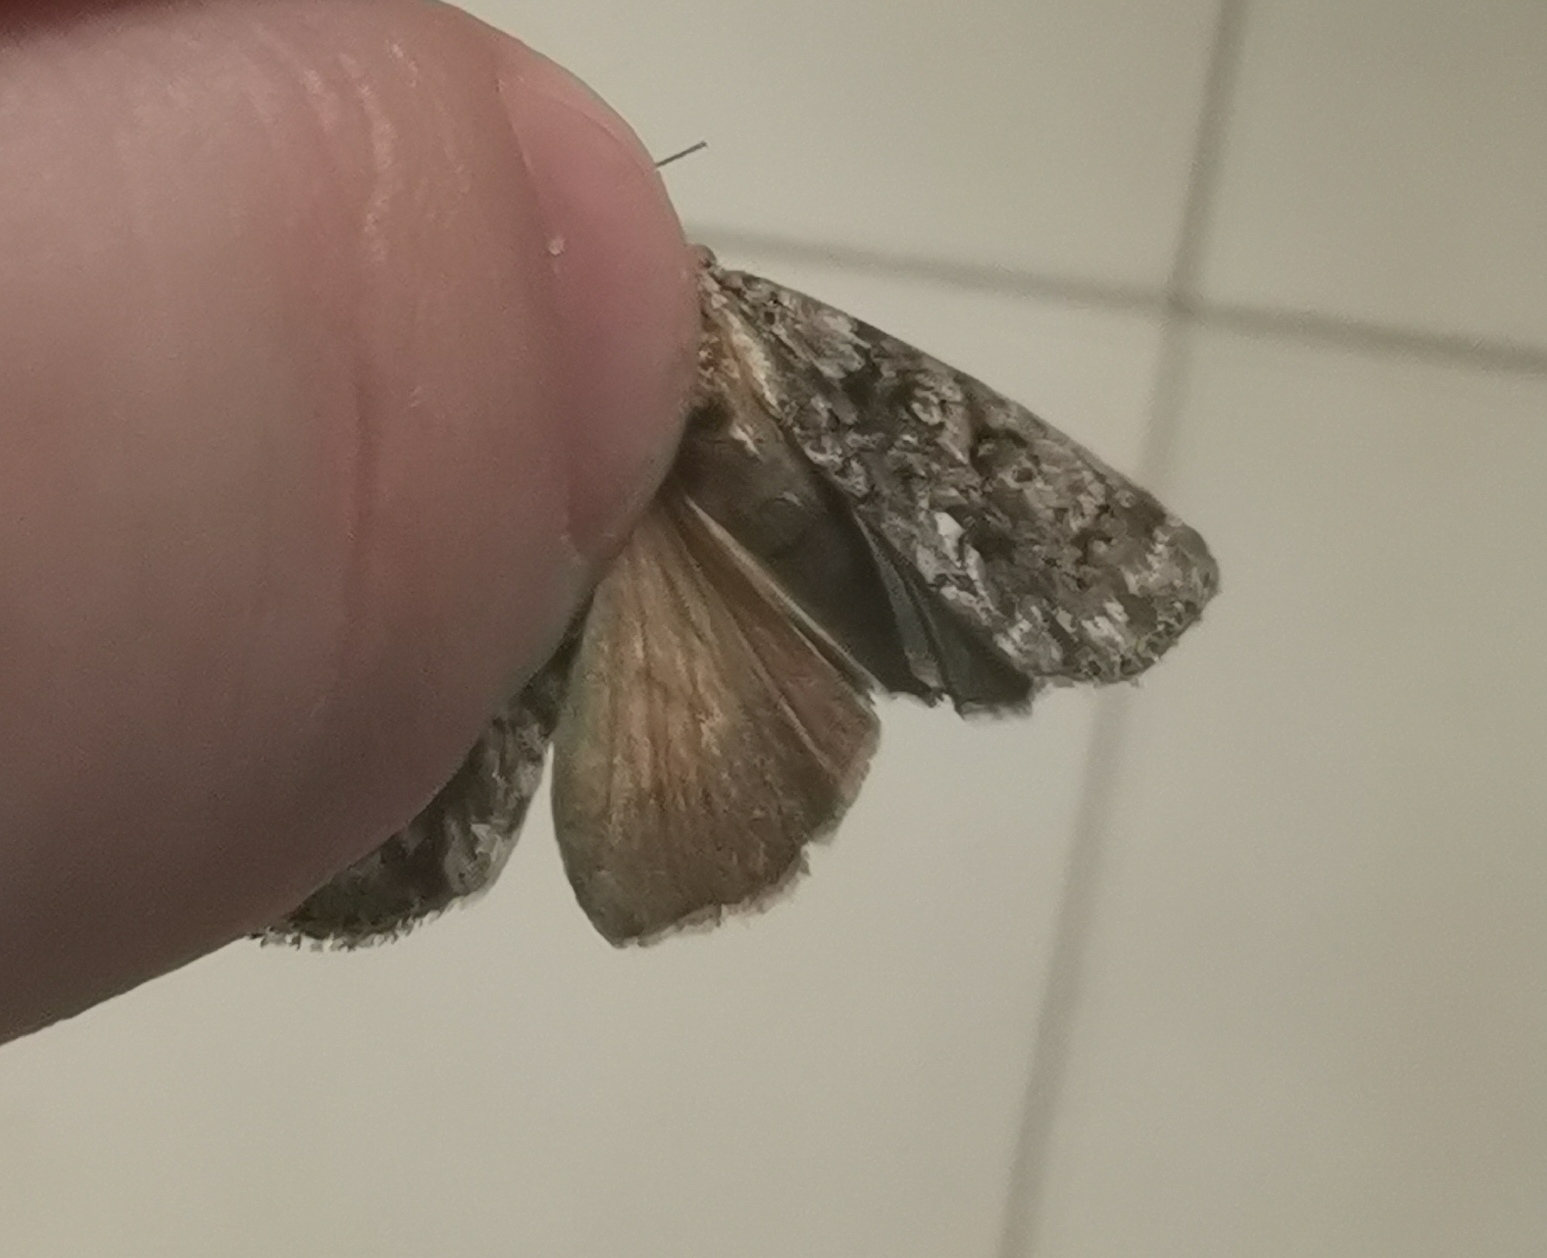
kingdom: Animalia
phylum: Arthropoda
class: Insecta
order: Lepidoptera
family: Noctuidae
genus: Acronicta
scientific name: Acronicta rumicis
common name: Knot grass
